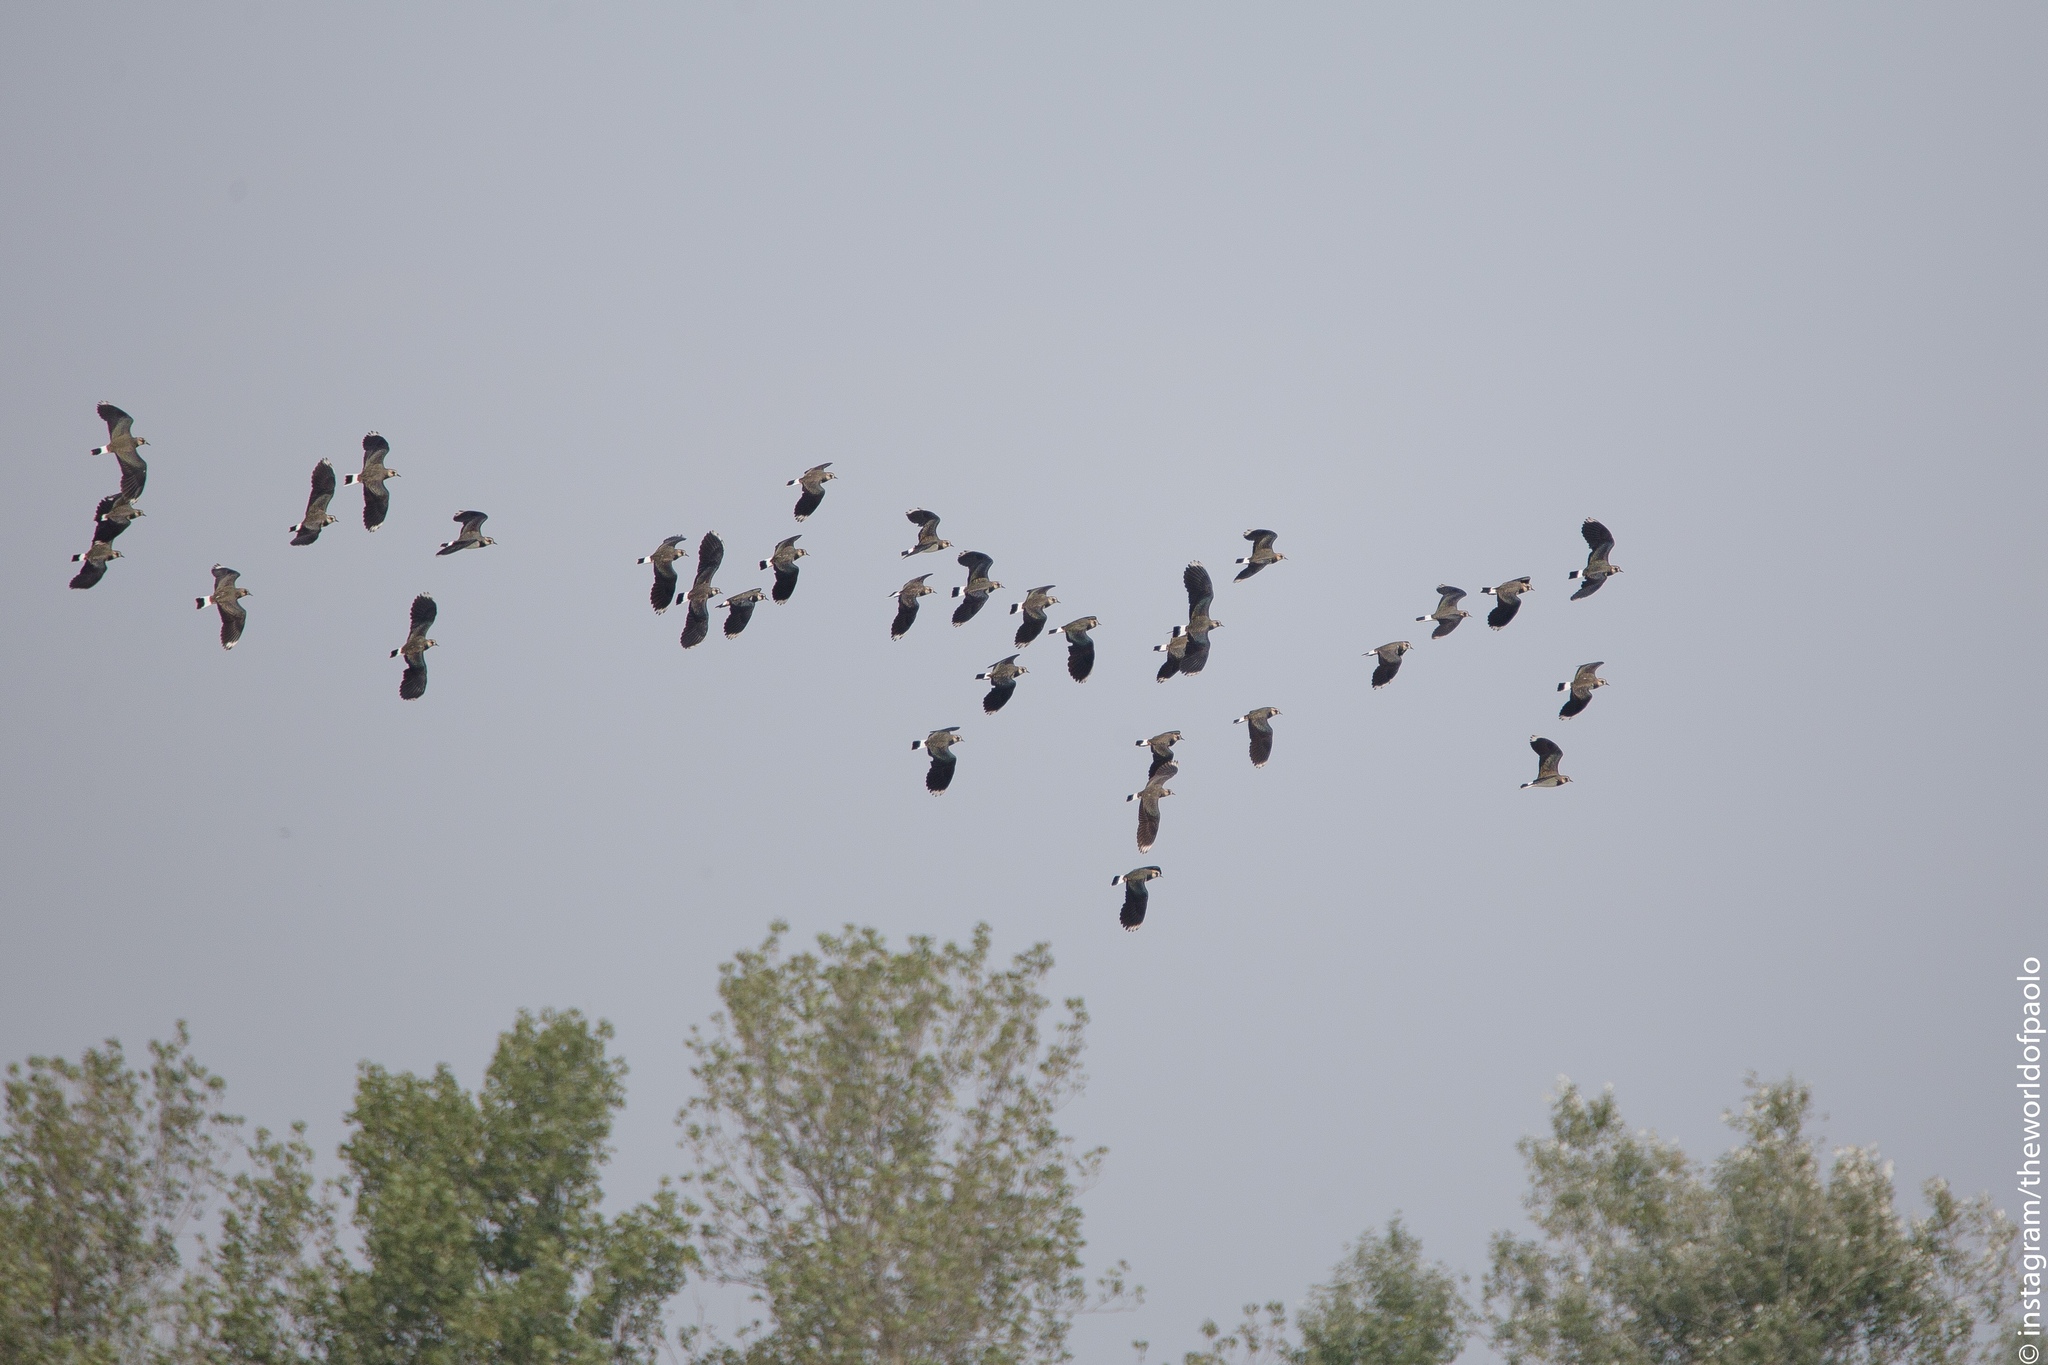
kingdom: Animalia
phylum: Chordata
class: Aves
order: Charadriiformes
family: Charadriidae
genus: Vanellus
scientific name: Vanellus vanellus
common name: Northern lapwing
